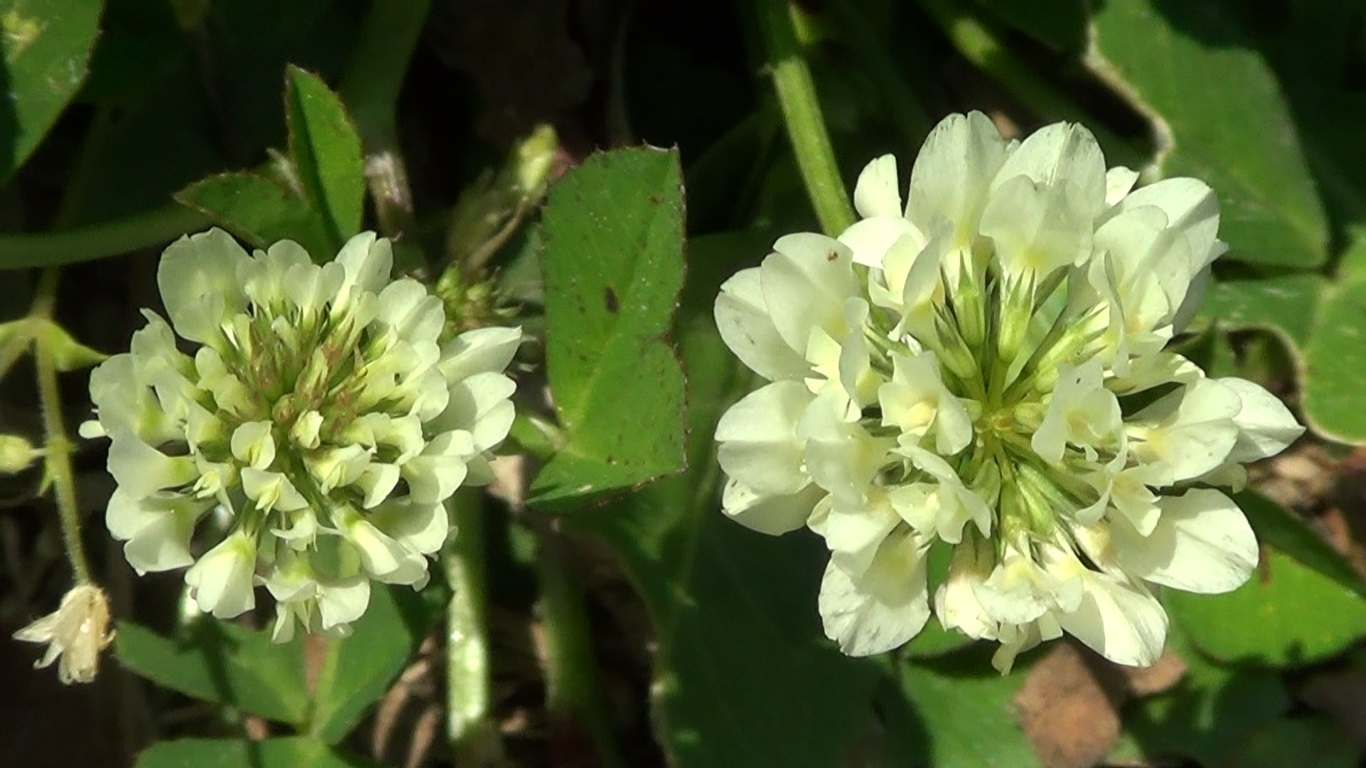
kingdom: Plantae
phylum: Tracheophyta
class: Magnoliopsida
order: Fabales
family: Fabaceae
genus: Trifolium
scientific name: Trifolium nigrescens
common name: Small white clover
